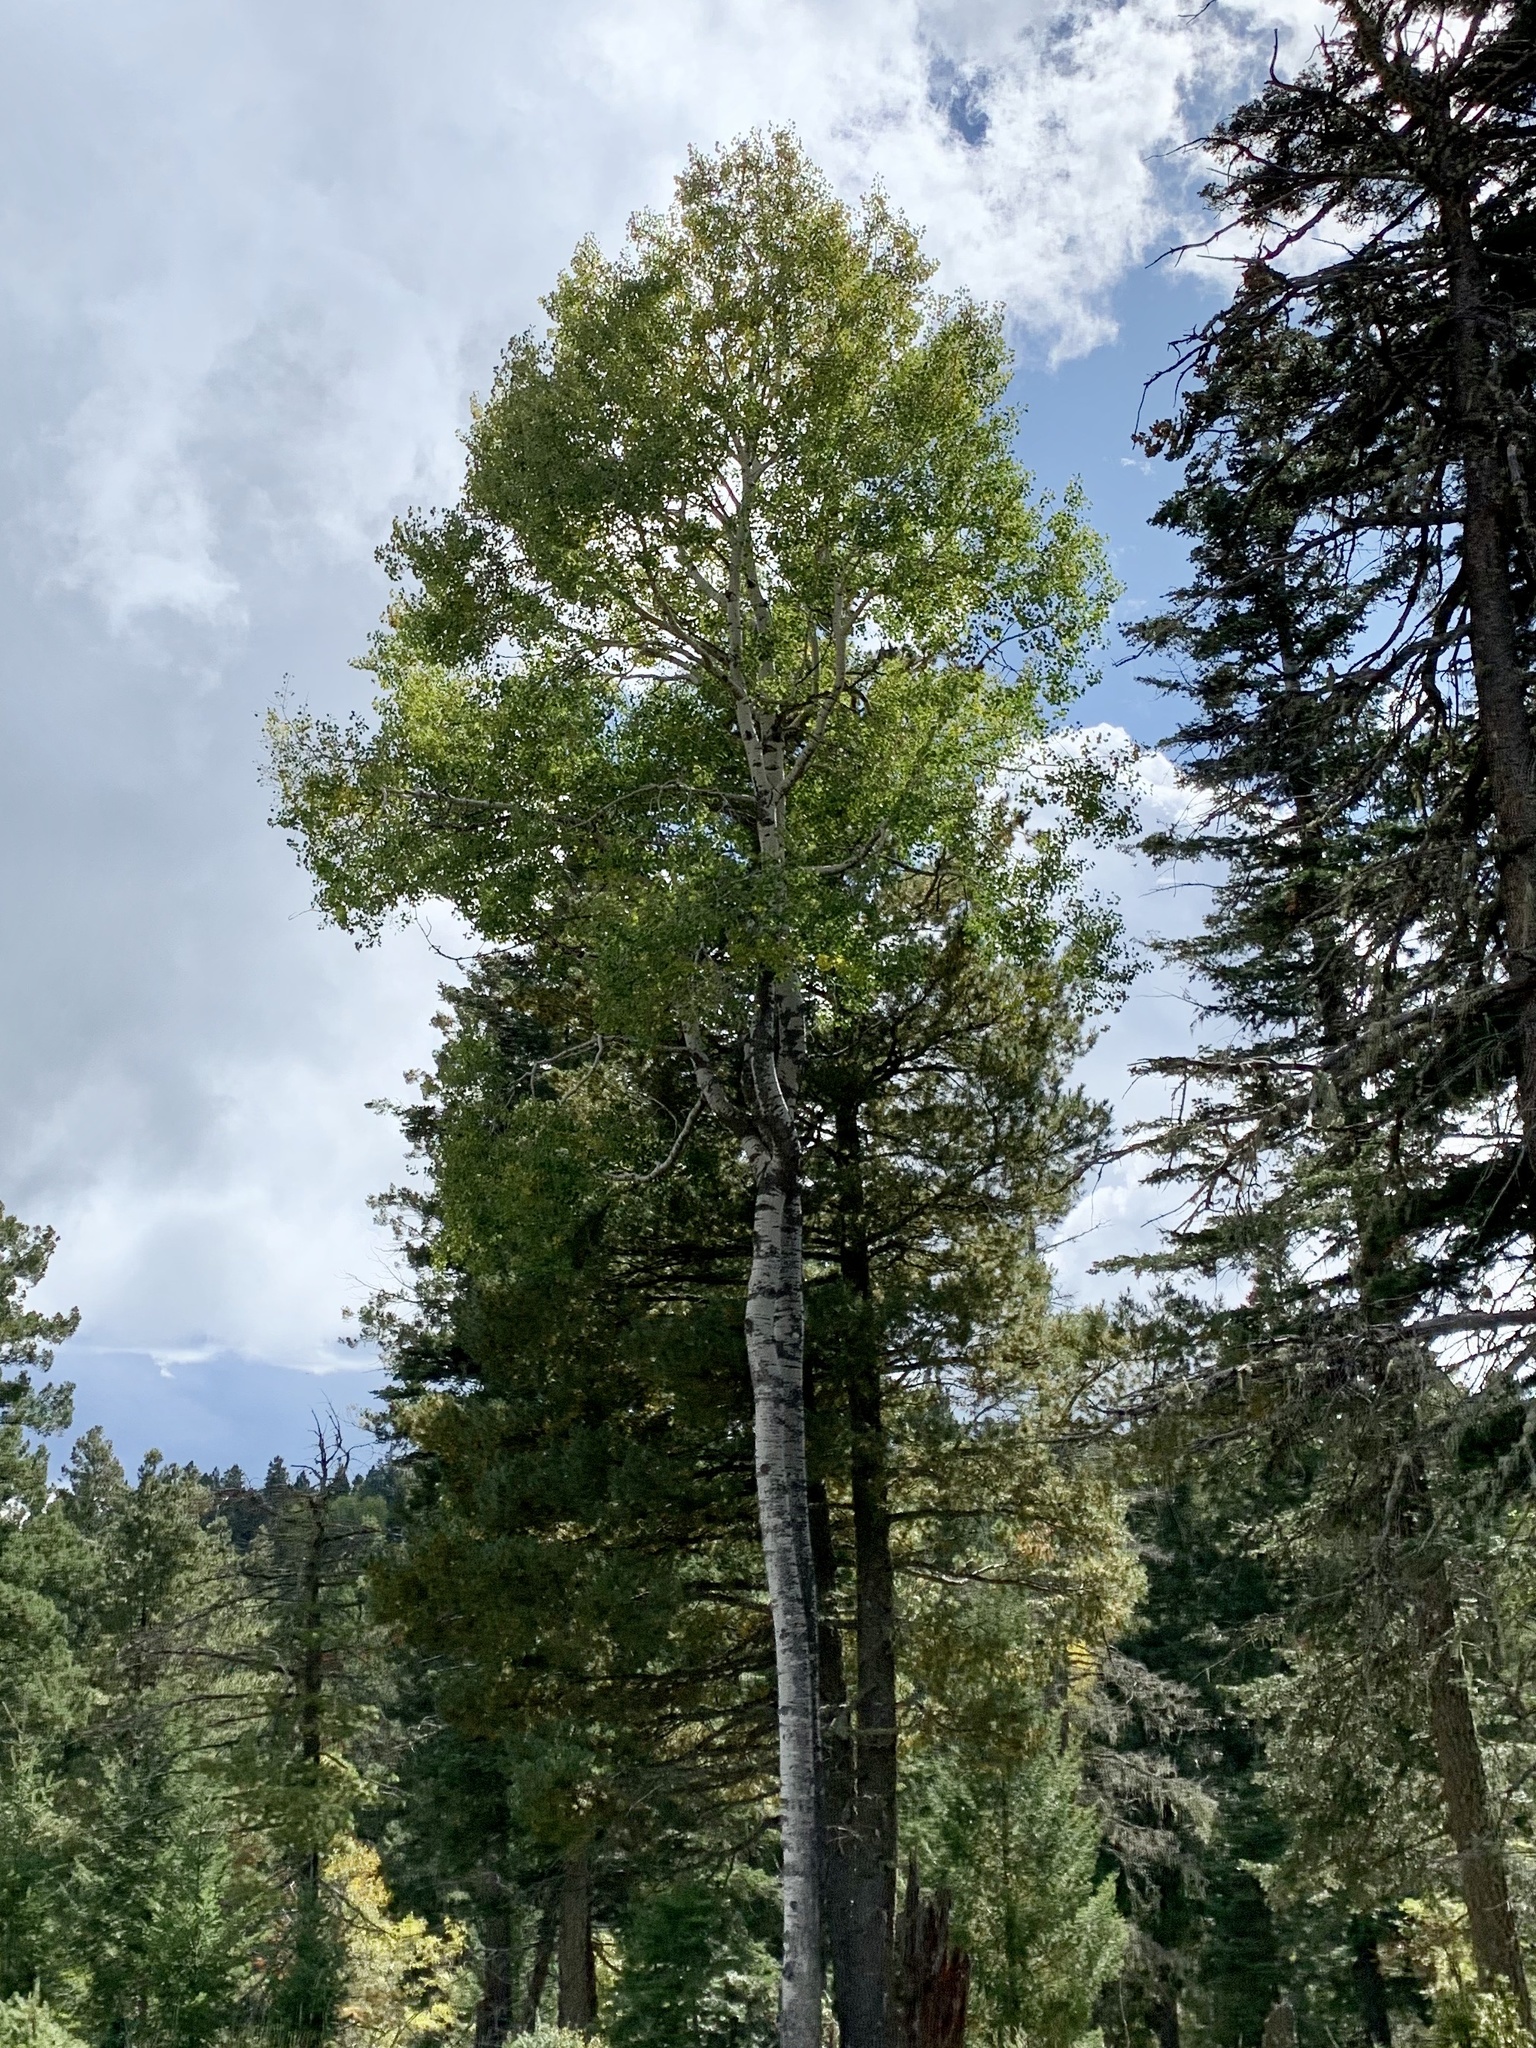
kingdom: Plantae
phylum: Tracheophyta
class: Magnoliopsida
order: Malpighiales
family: Salicaceae
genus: Populus
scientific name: Populus tremuloides
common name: Quaking aspen
